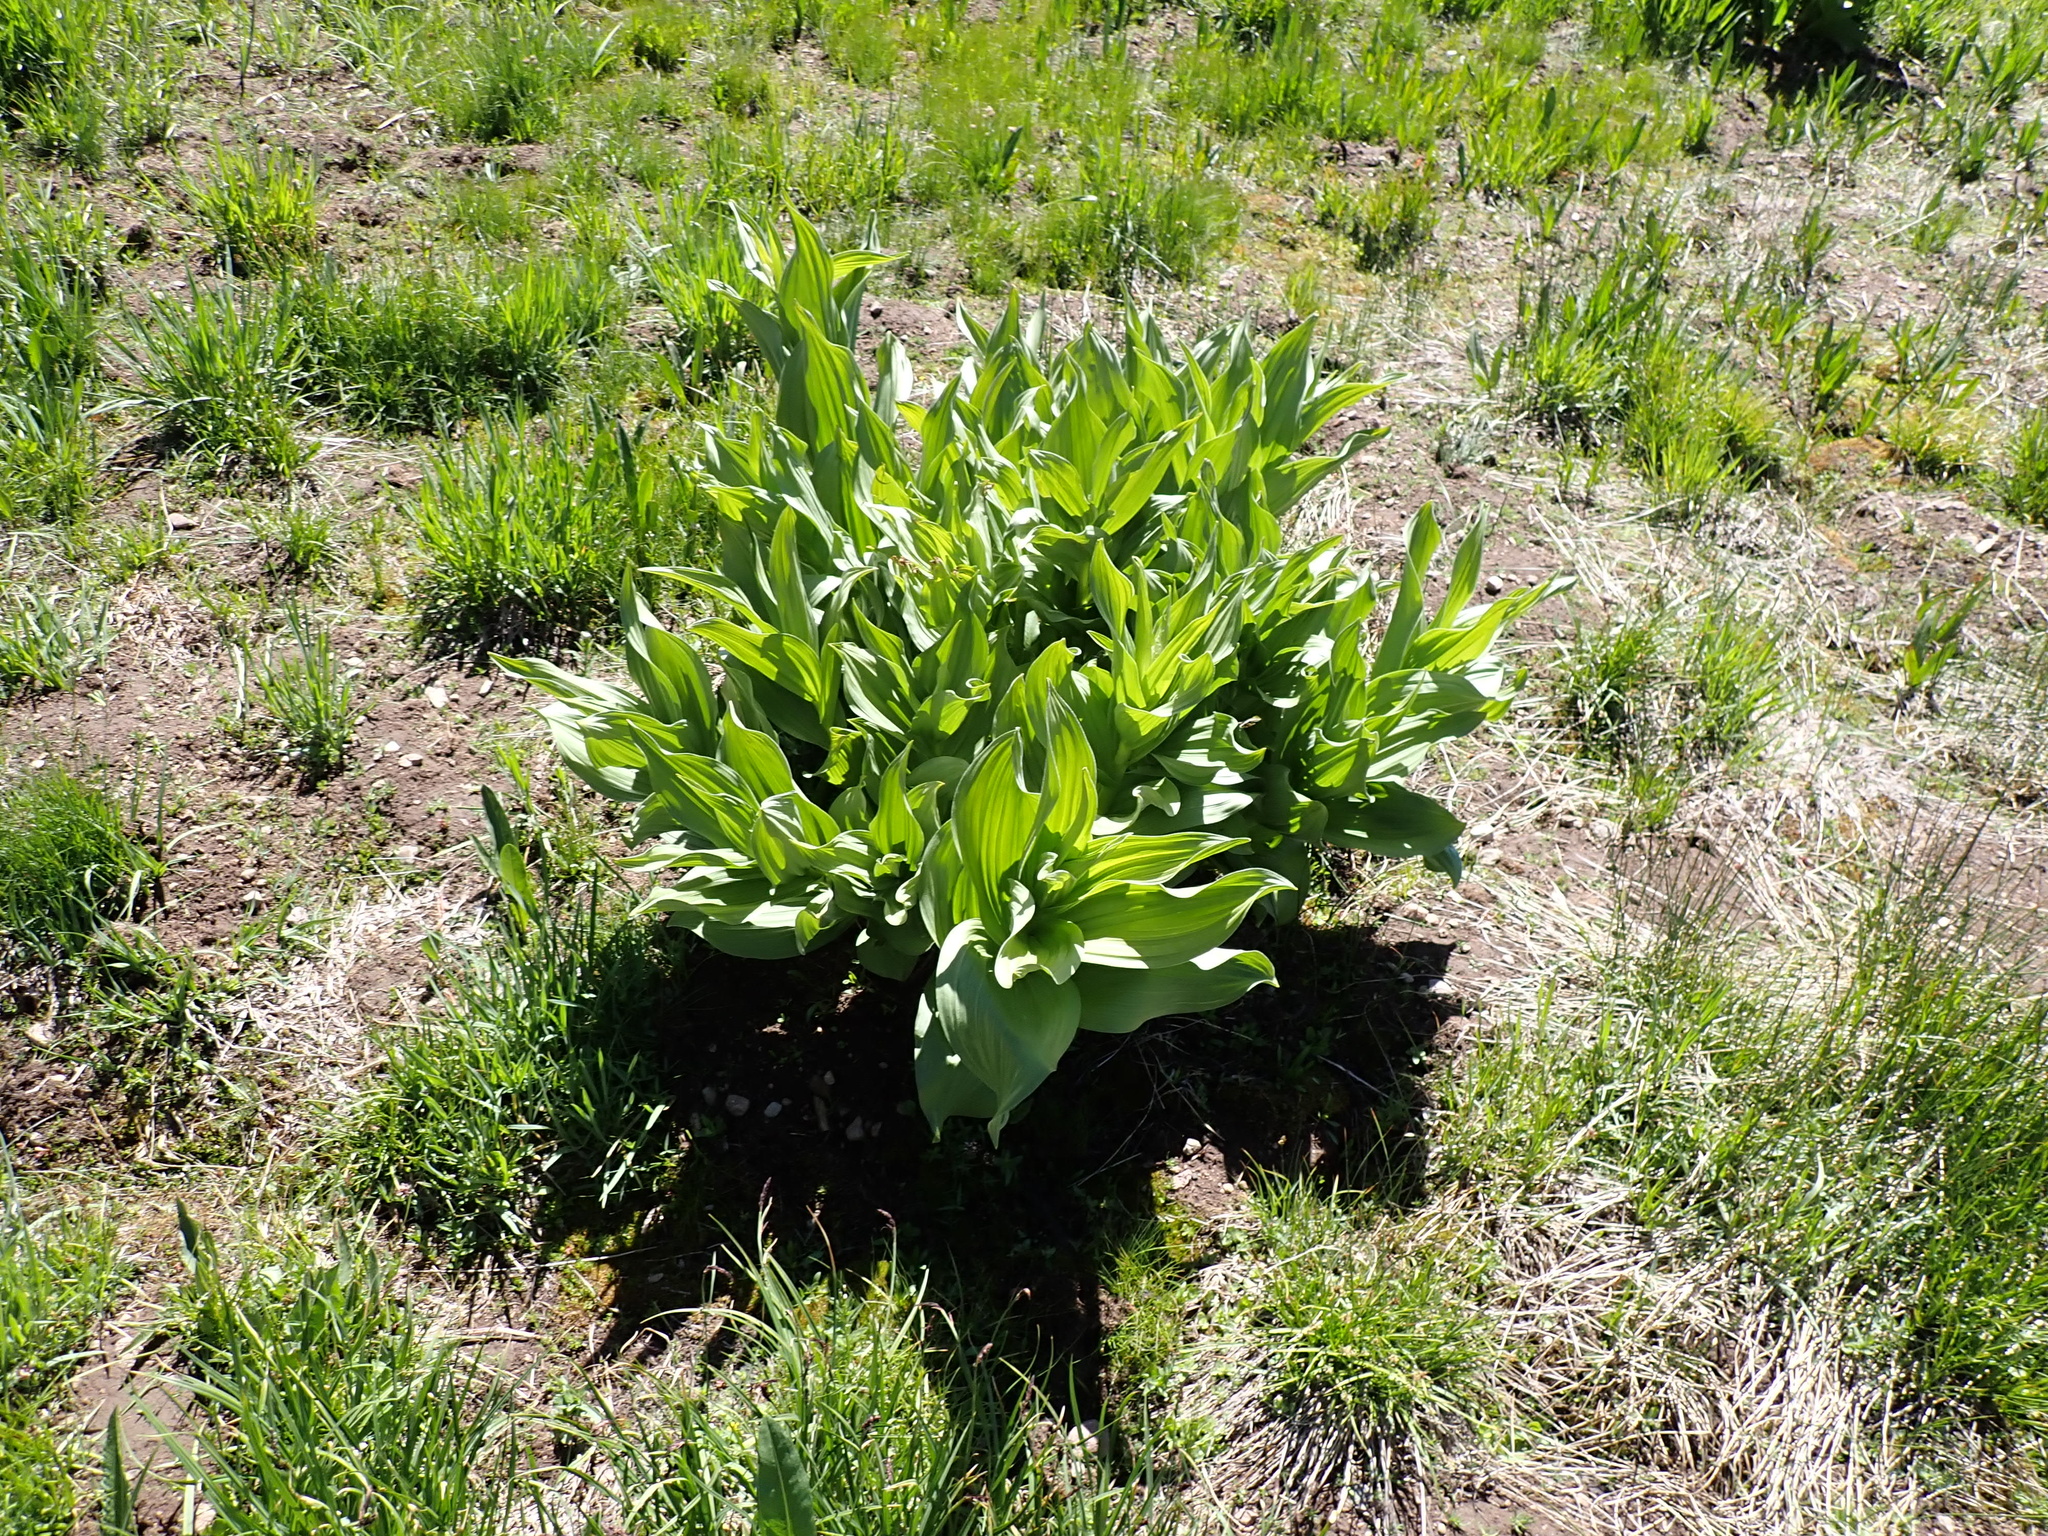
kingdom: Plantae
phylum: Tracheophyta
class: Liliopsida
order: Liliales
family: Melanthiaceae
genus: Veratrum
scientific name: Veratrum californicum
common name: California veratrum
